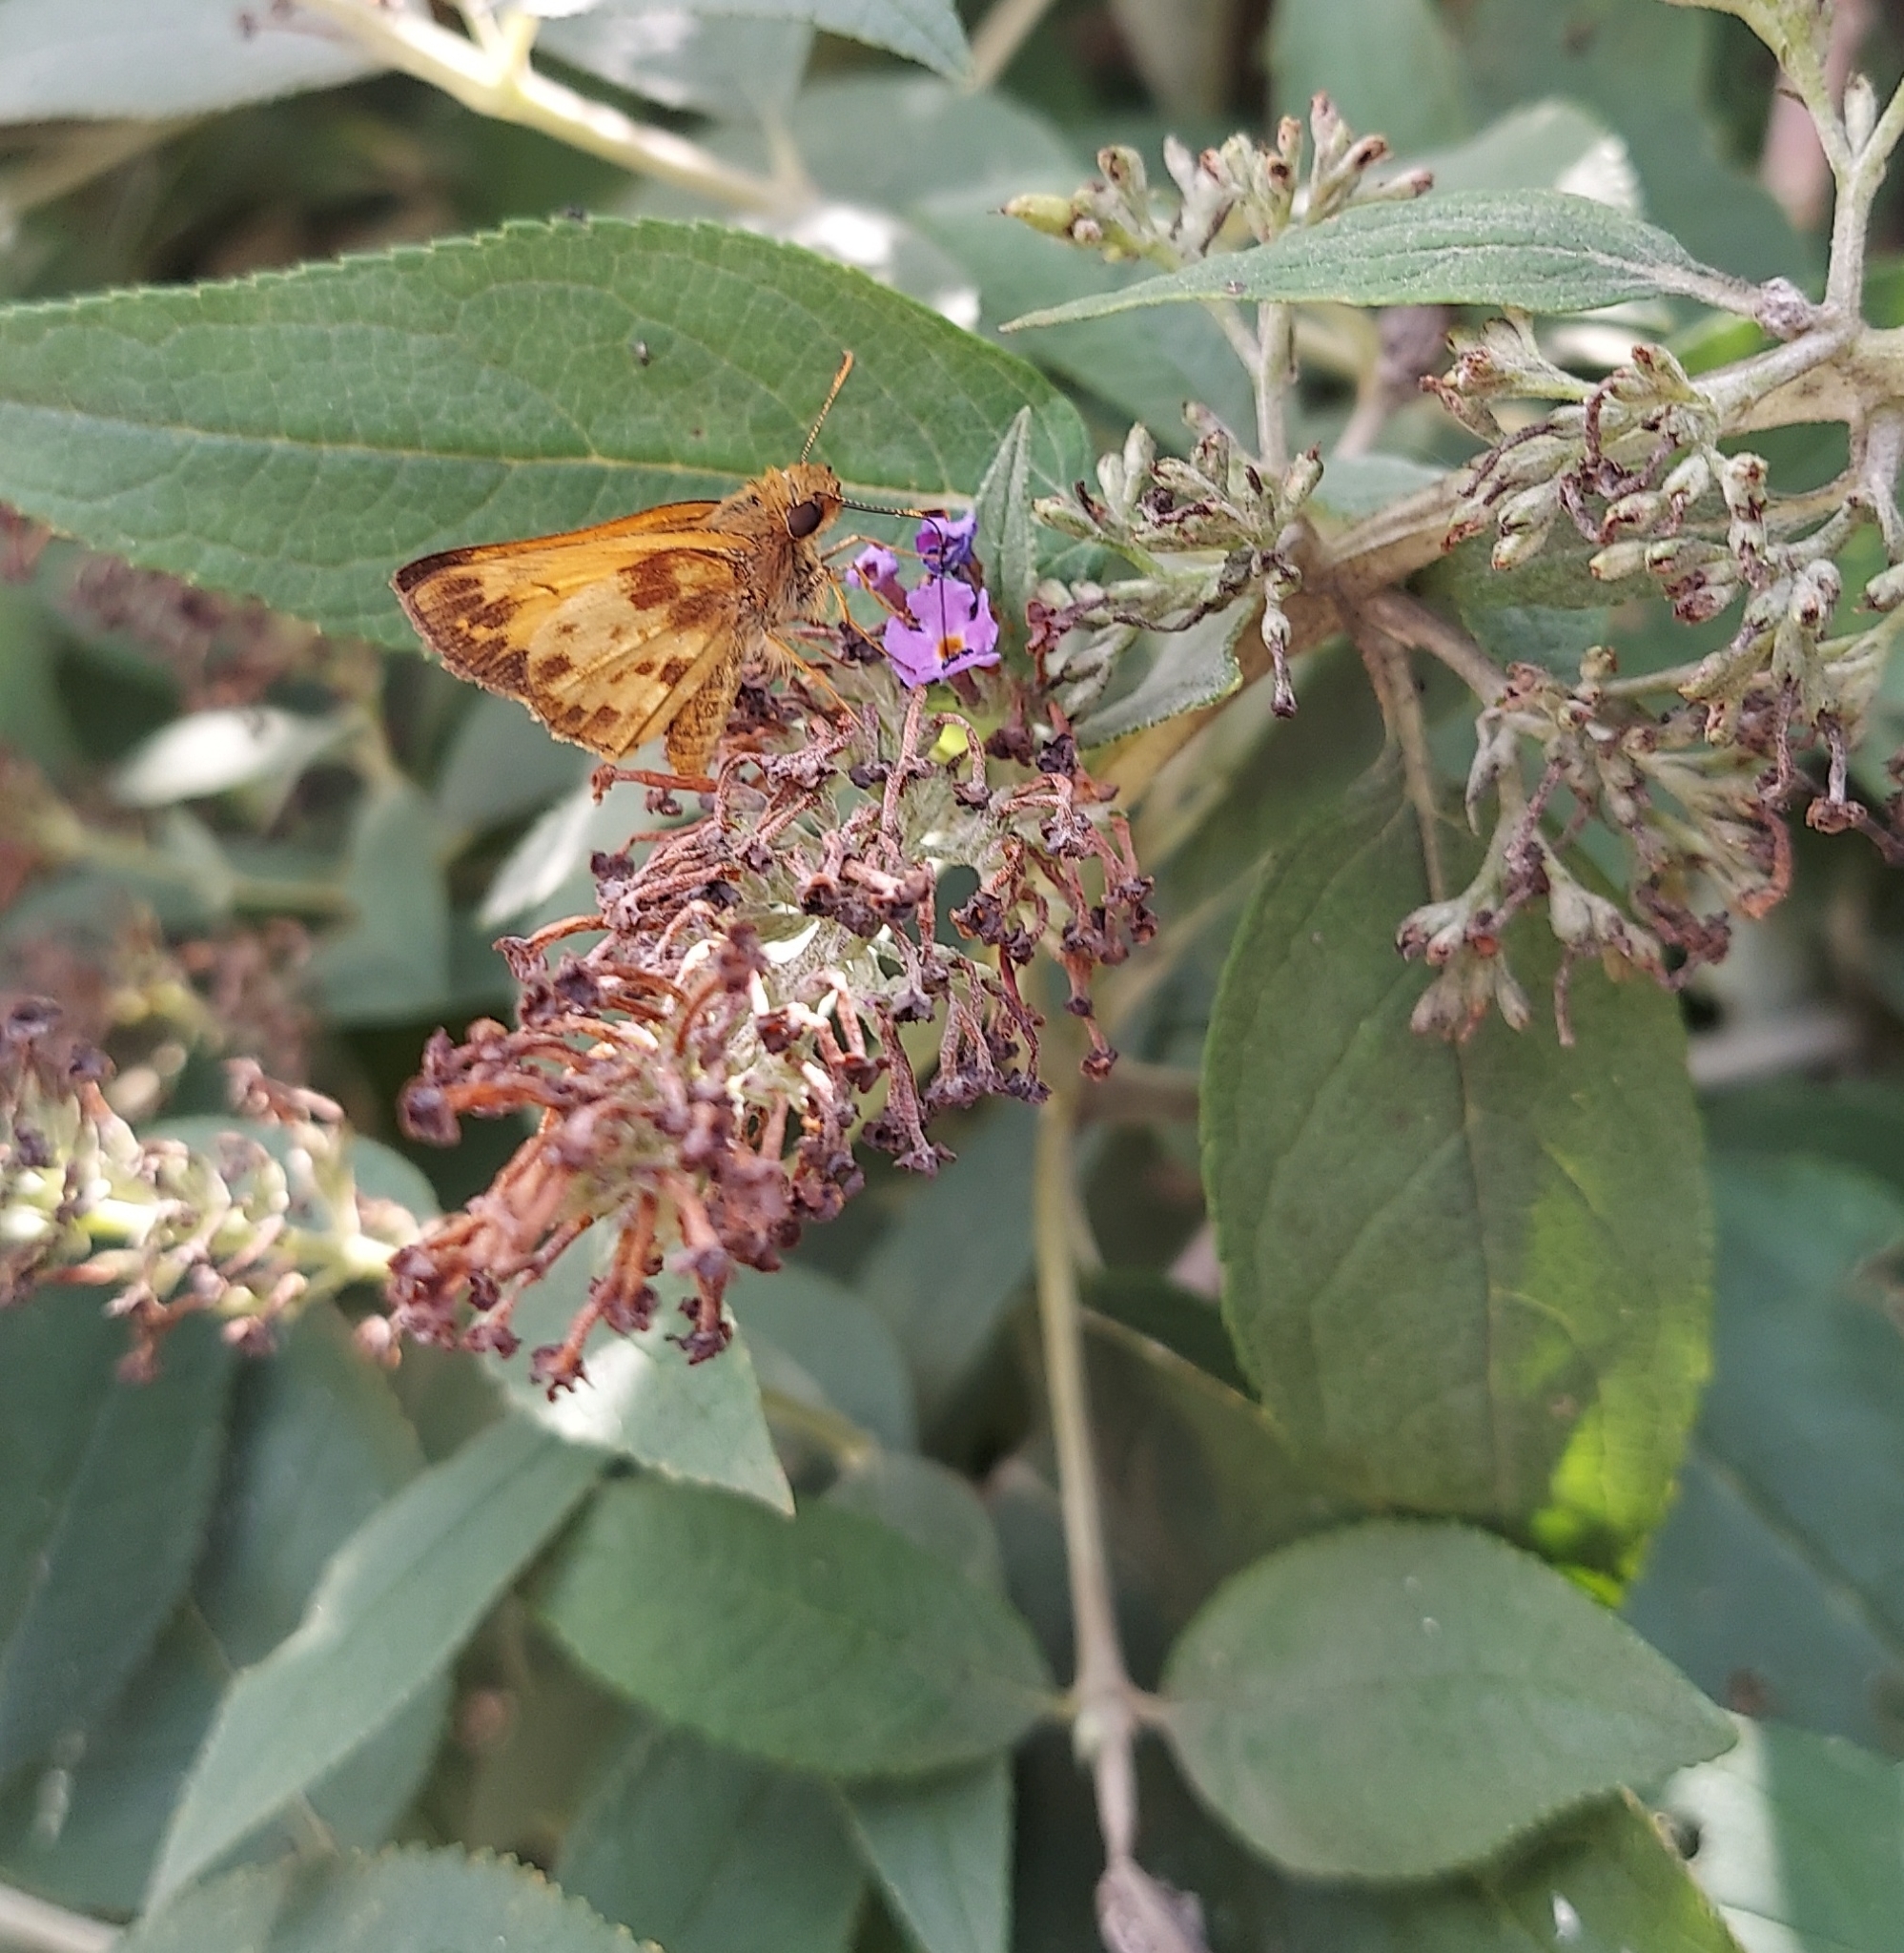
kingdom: Animalia
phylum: Arthropoda
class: Insecta
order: Lepidoptera
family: Hesperiidae
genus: Lon
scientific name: Lon zabulon
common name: Zabulon skipper
